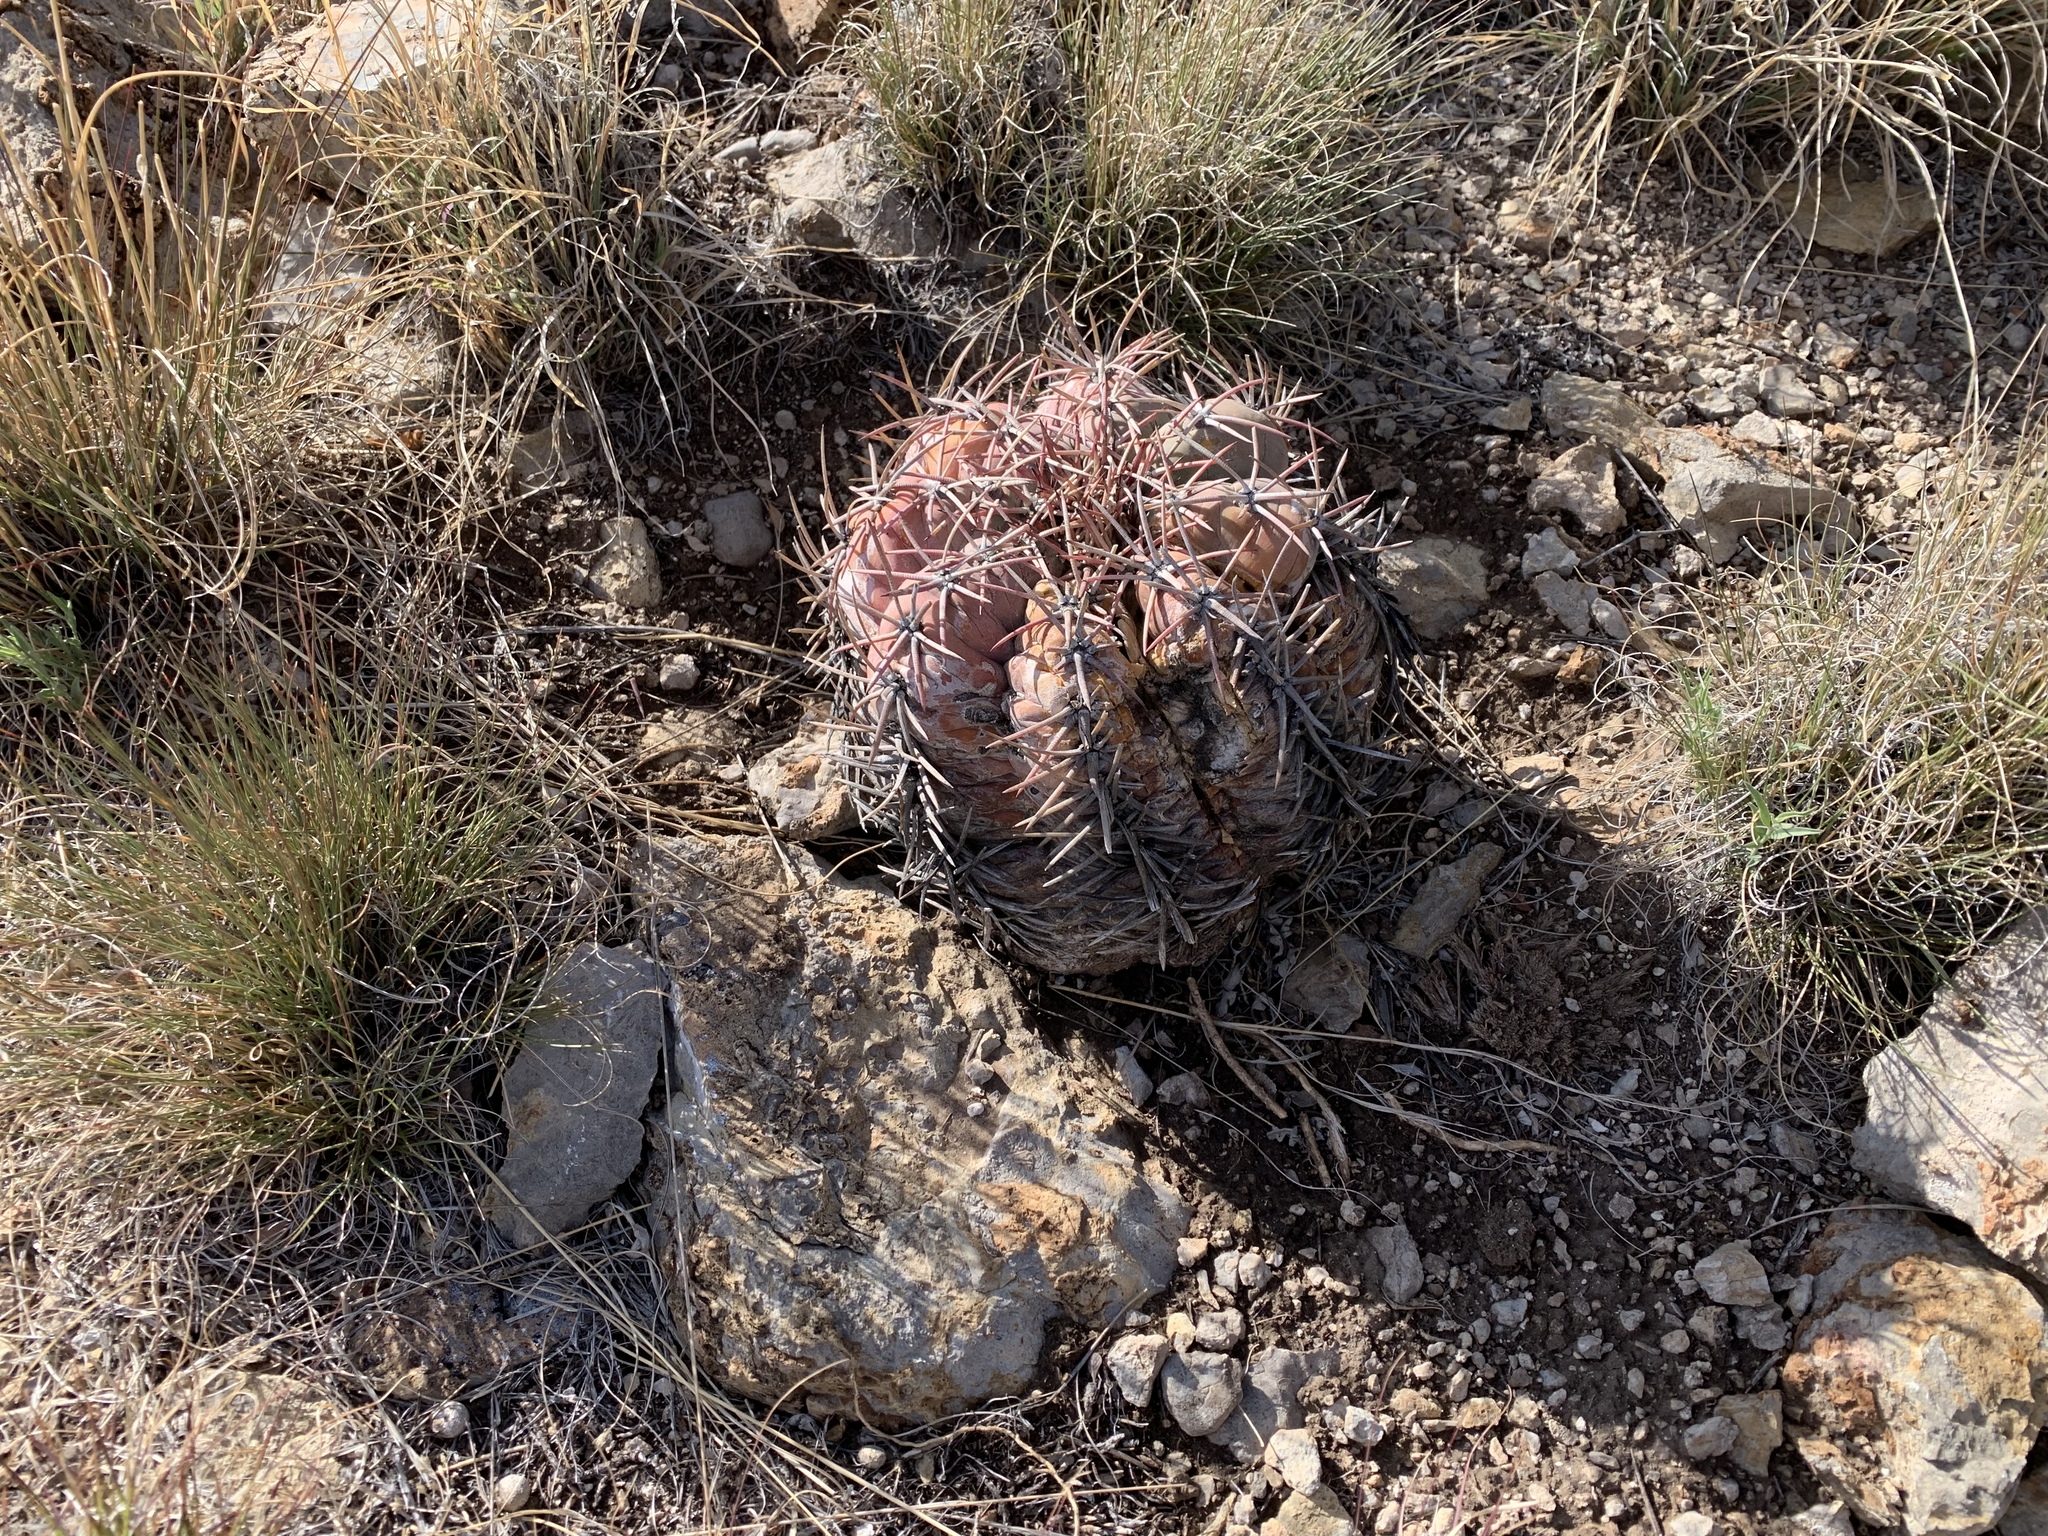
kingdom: Plantae
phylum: Tracheophyta
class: Magnoliopsida
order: Caryophyllales
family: Cactaceae
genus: Echinocactus
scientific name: Echinocactus horizonthalonius
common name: Devilshead
